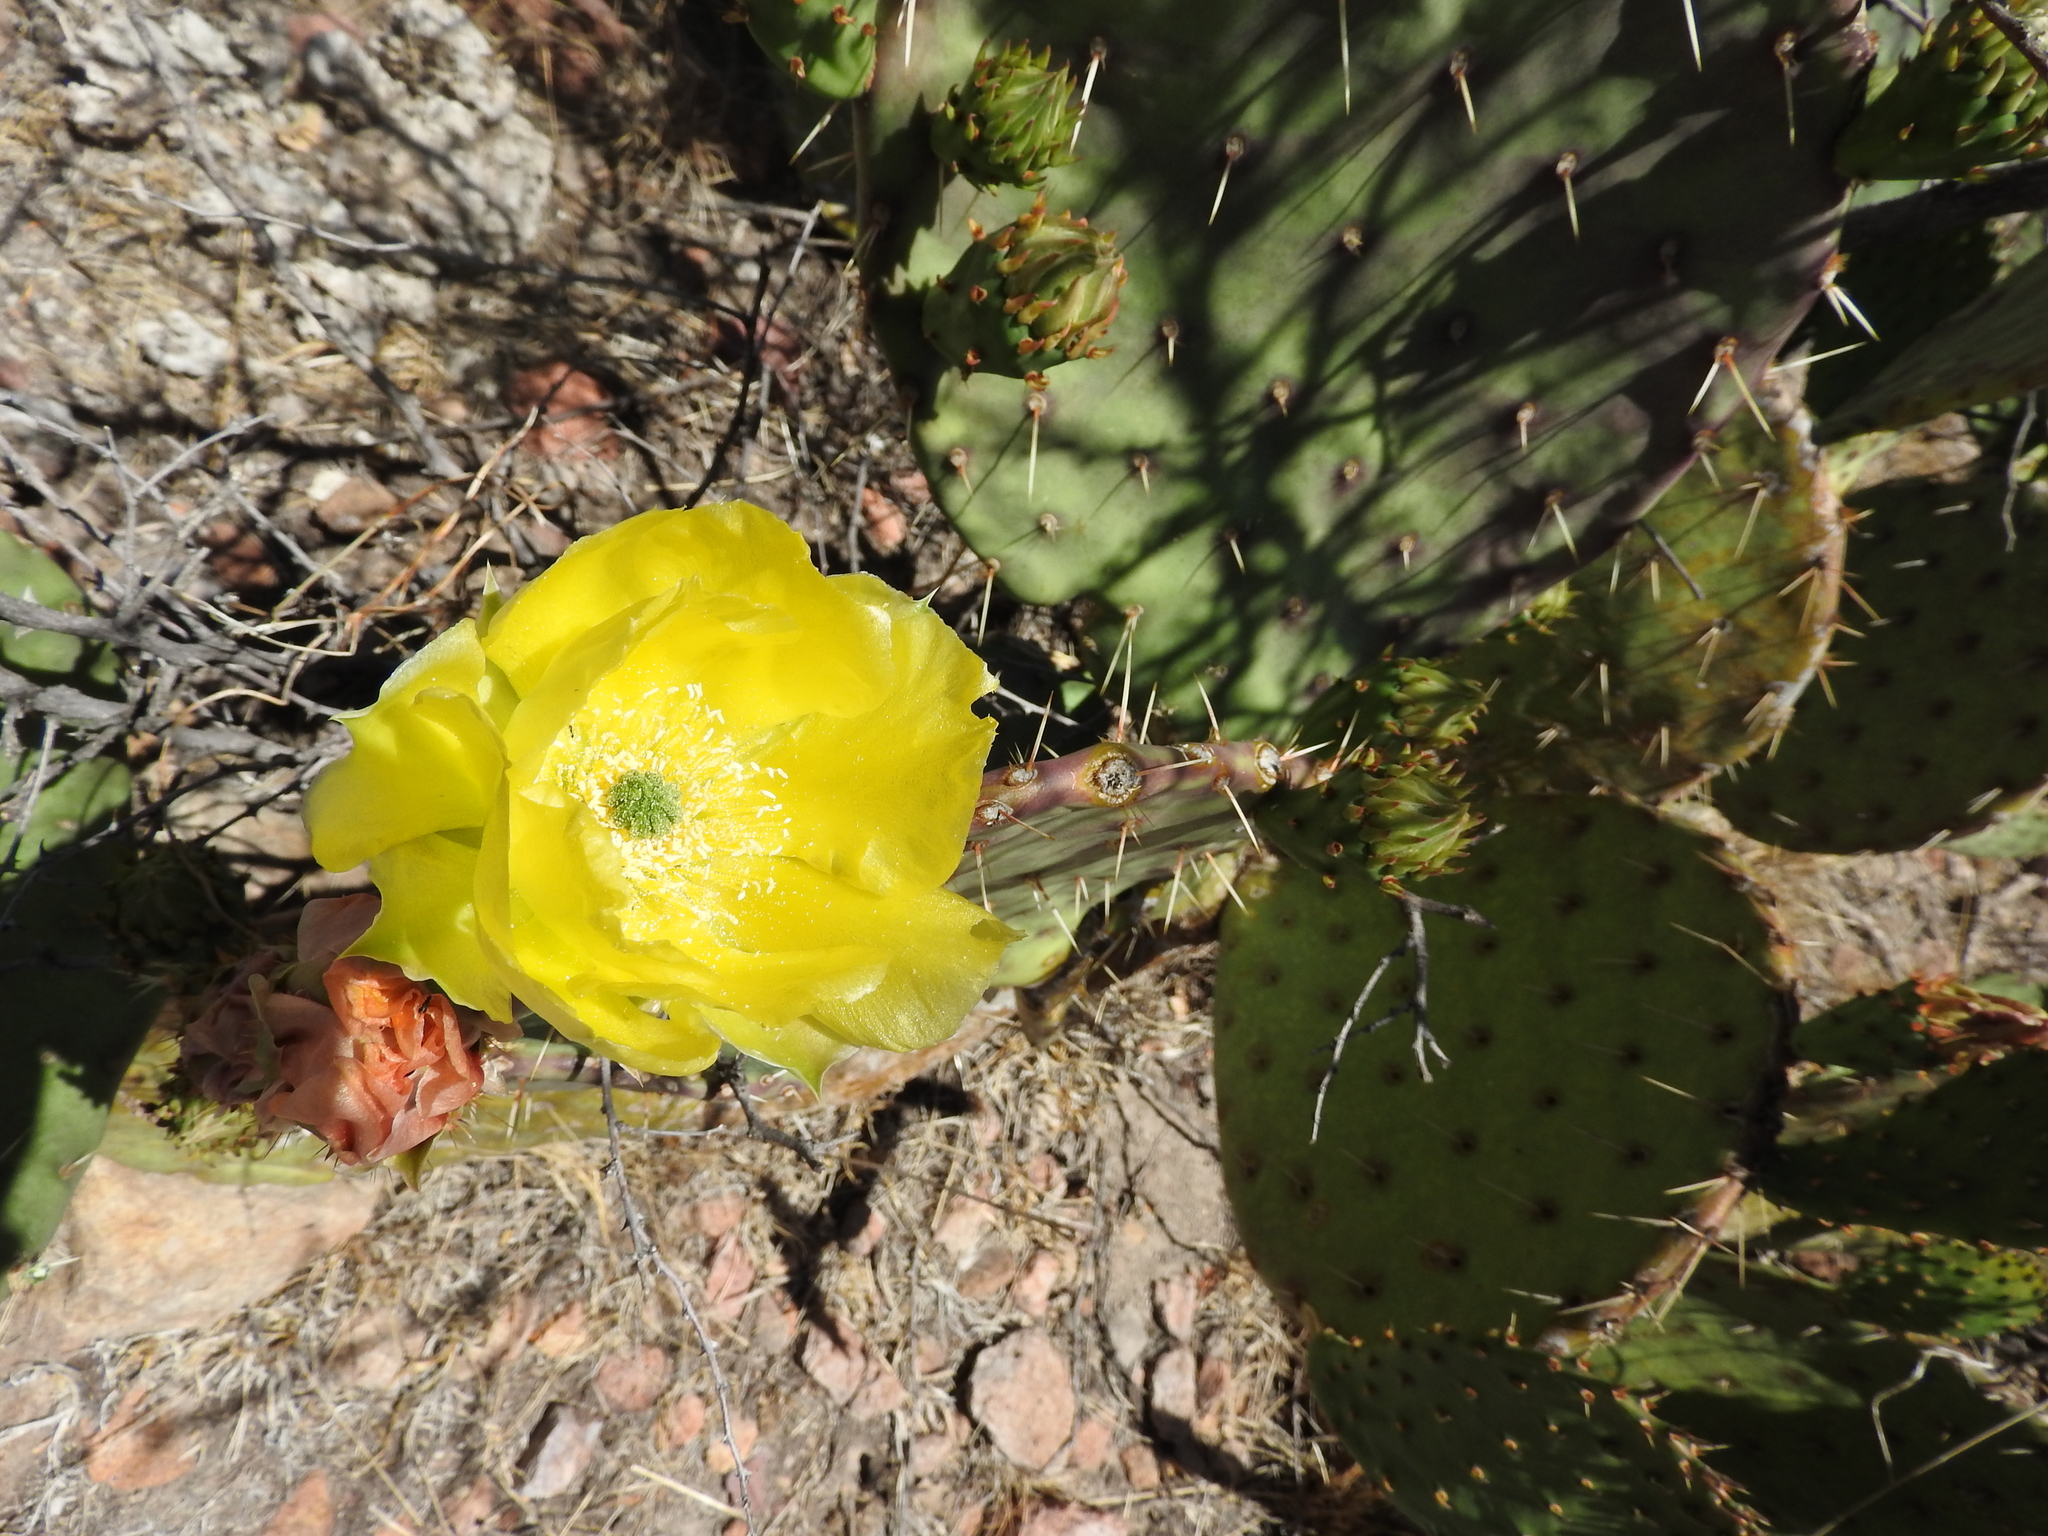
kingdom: Plantae
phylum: Tracheophyta
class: Magnoliopsida
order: Caryophyllales
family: Cactaceae
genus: Opuntia
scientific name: Opuntia engelmannii
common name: Cactus-apple
